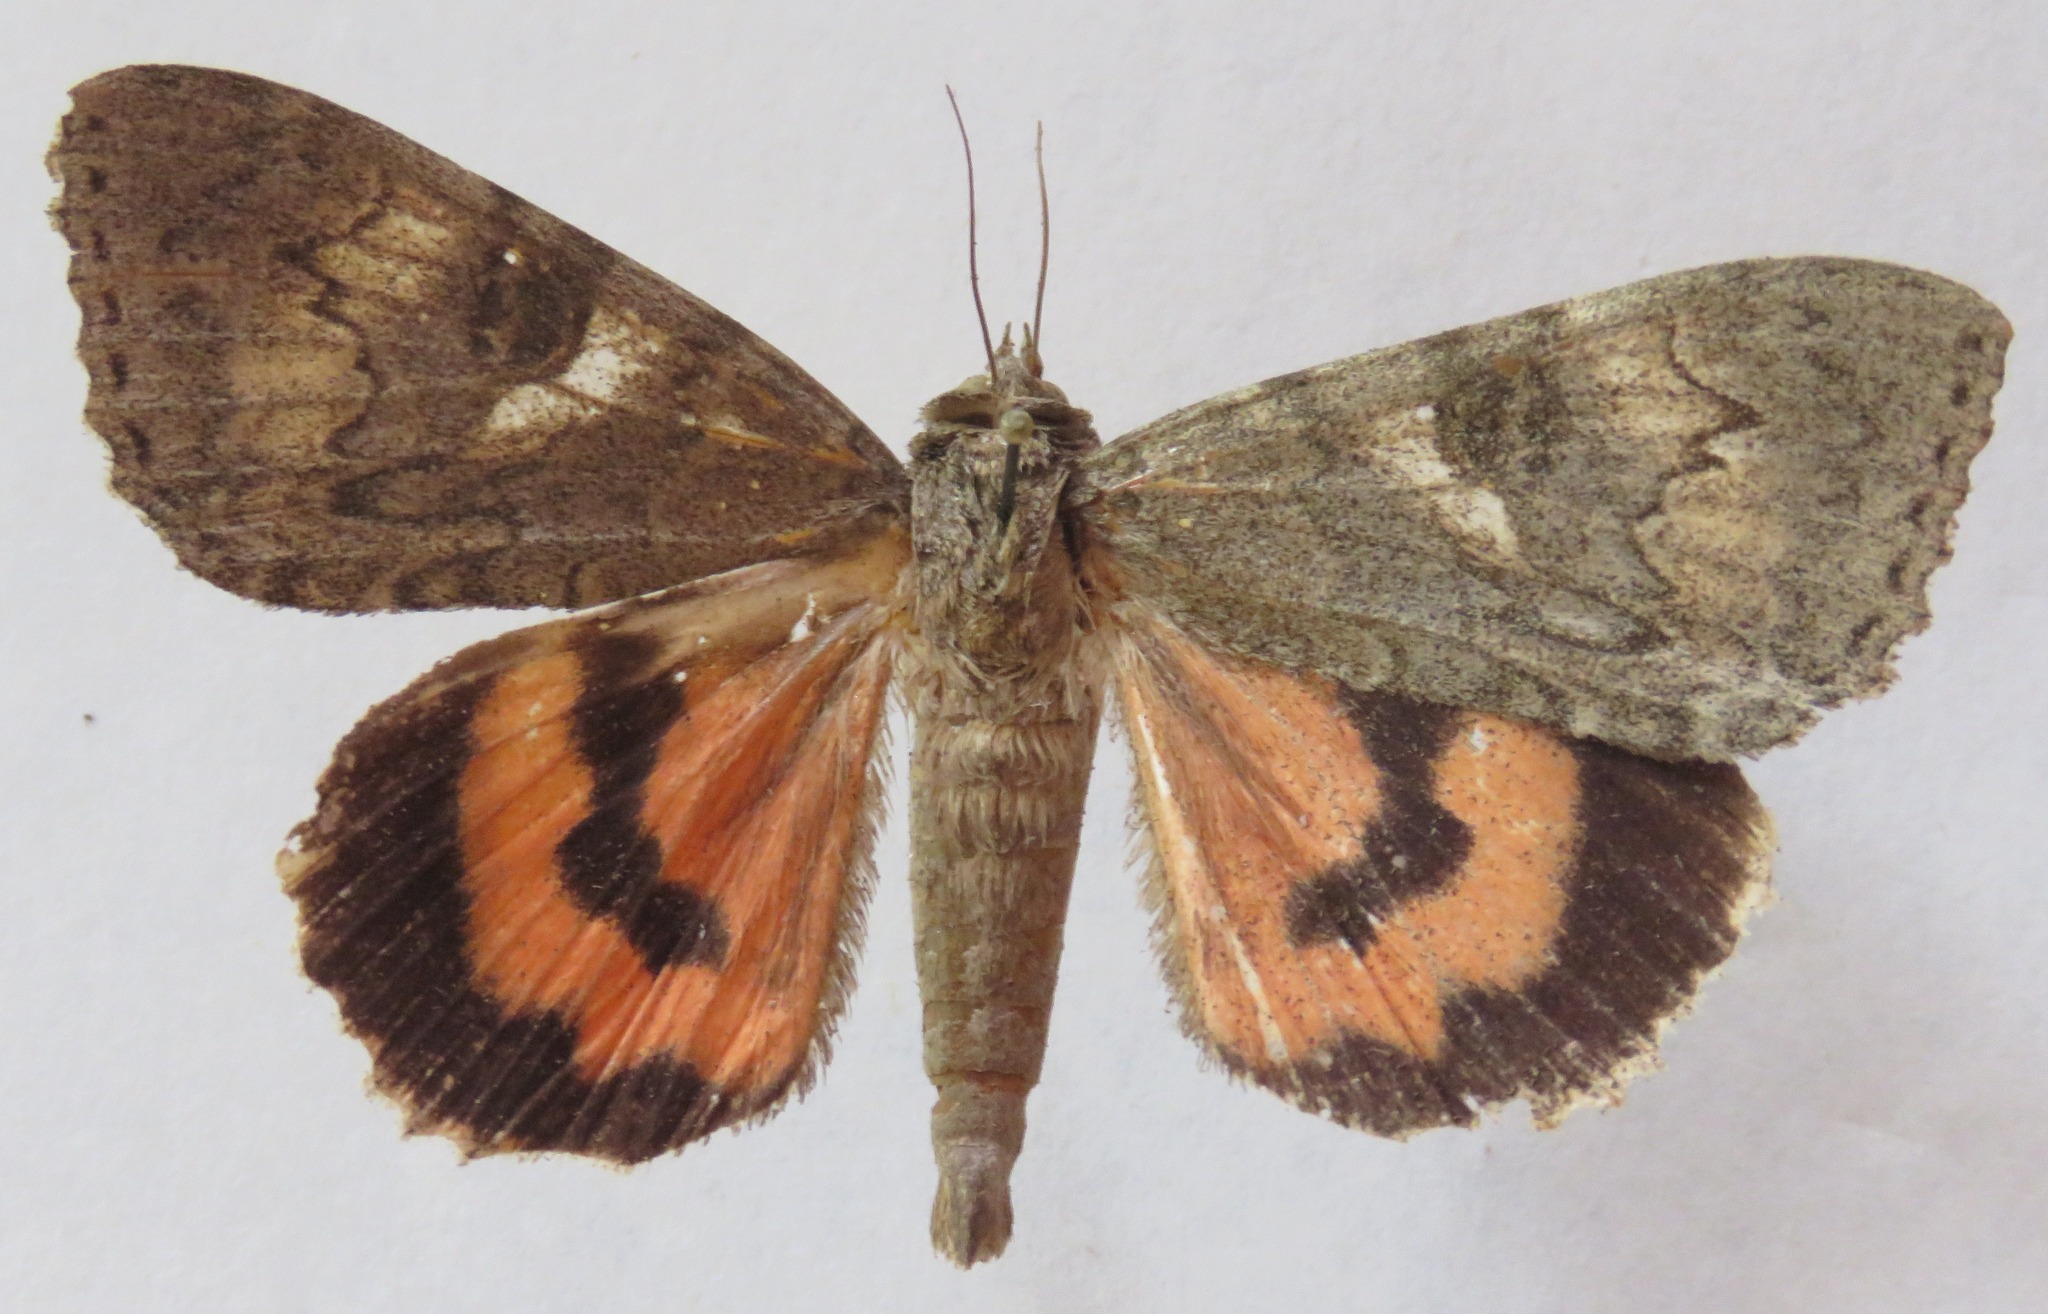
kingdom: Animalia
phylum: Arthropoda
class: Insecta
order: Lepidoptera
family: Erebidae
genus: Catocala
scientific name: Catocala nupta
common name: Red underwing
